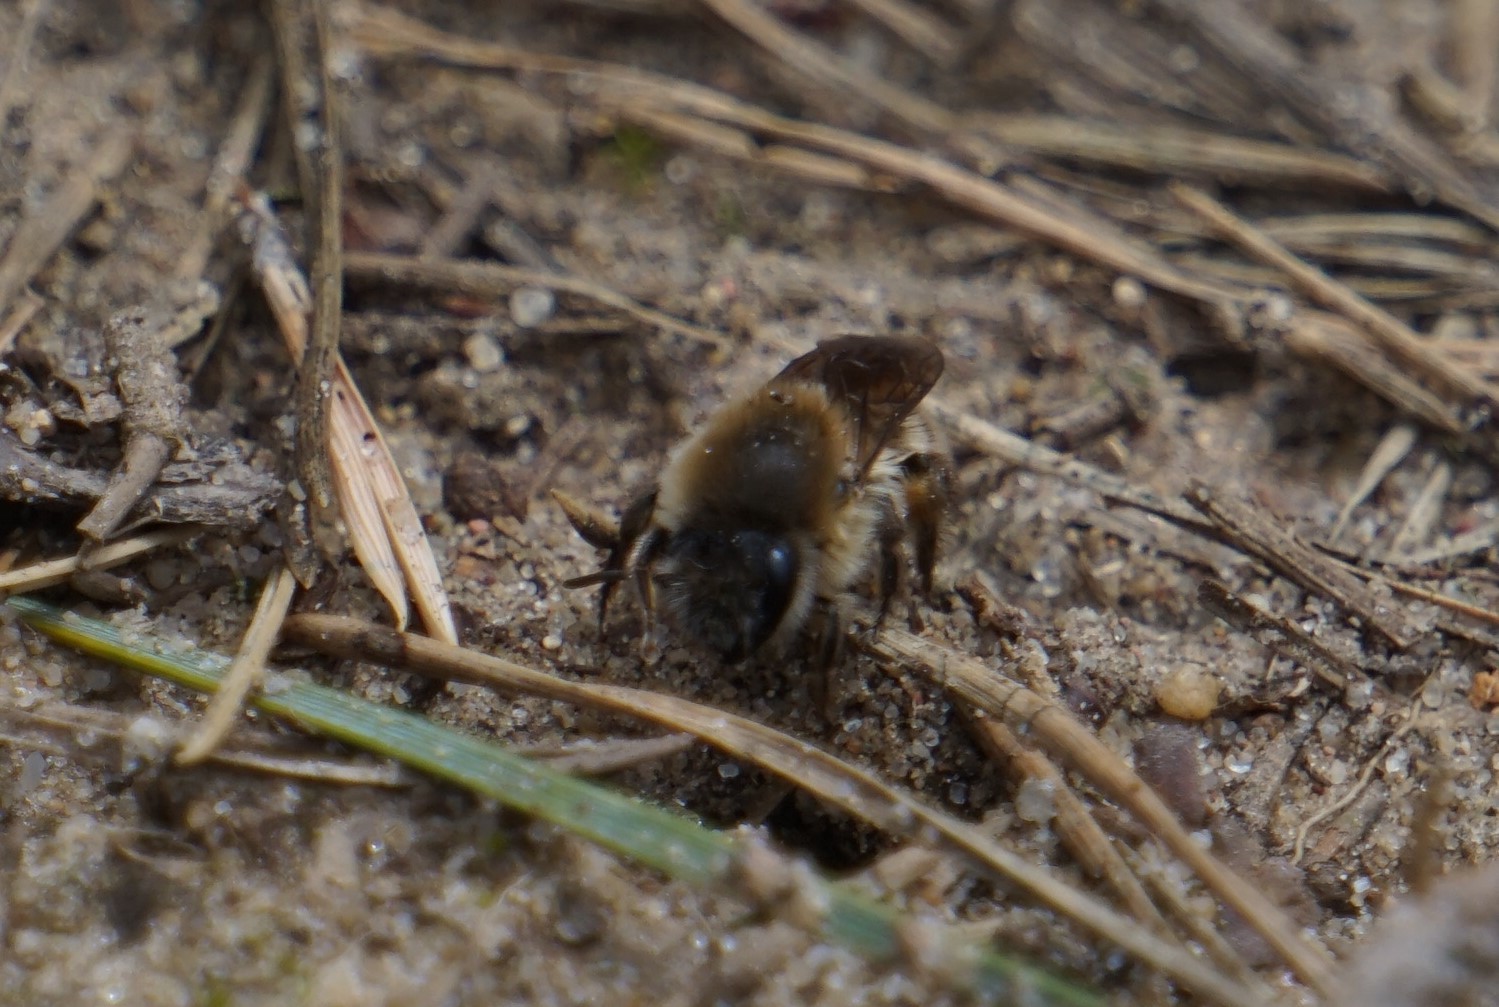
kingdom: Animalia
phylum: Arthropoda
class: Insecta
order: Hymenoptera
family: Colletidae
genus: Colletes
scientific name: Colletes cunicularius
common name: Early colletes
